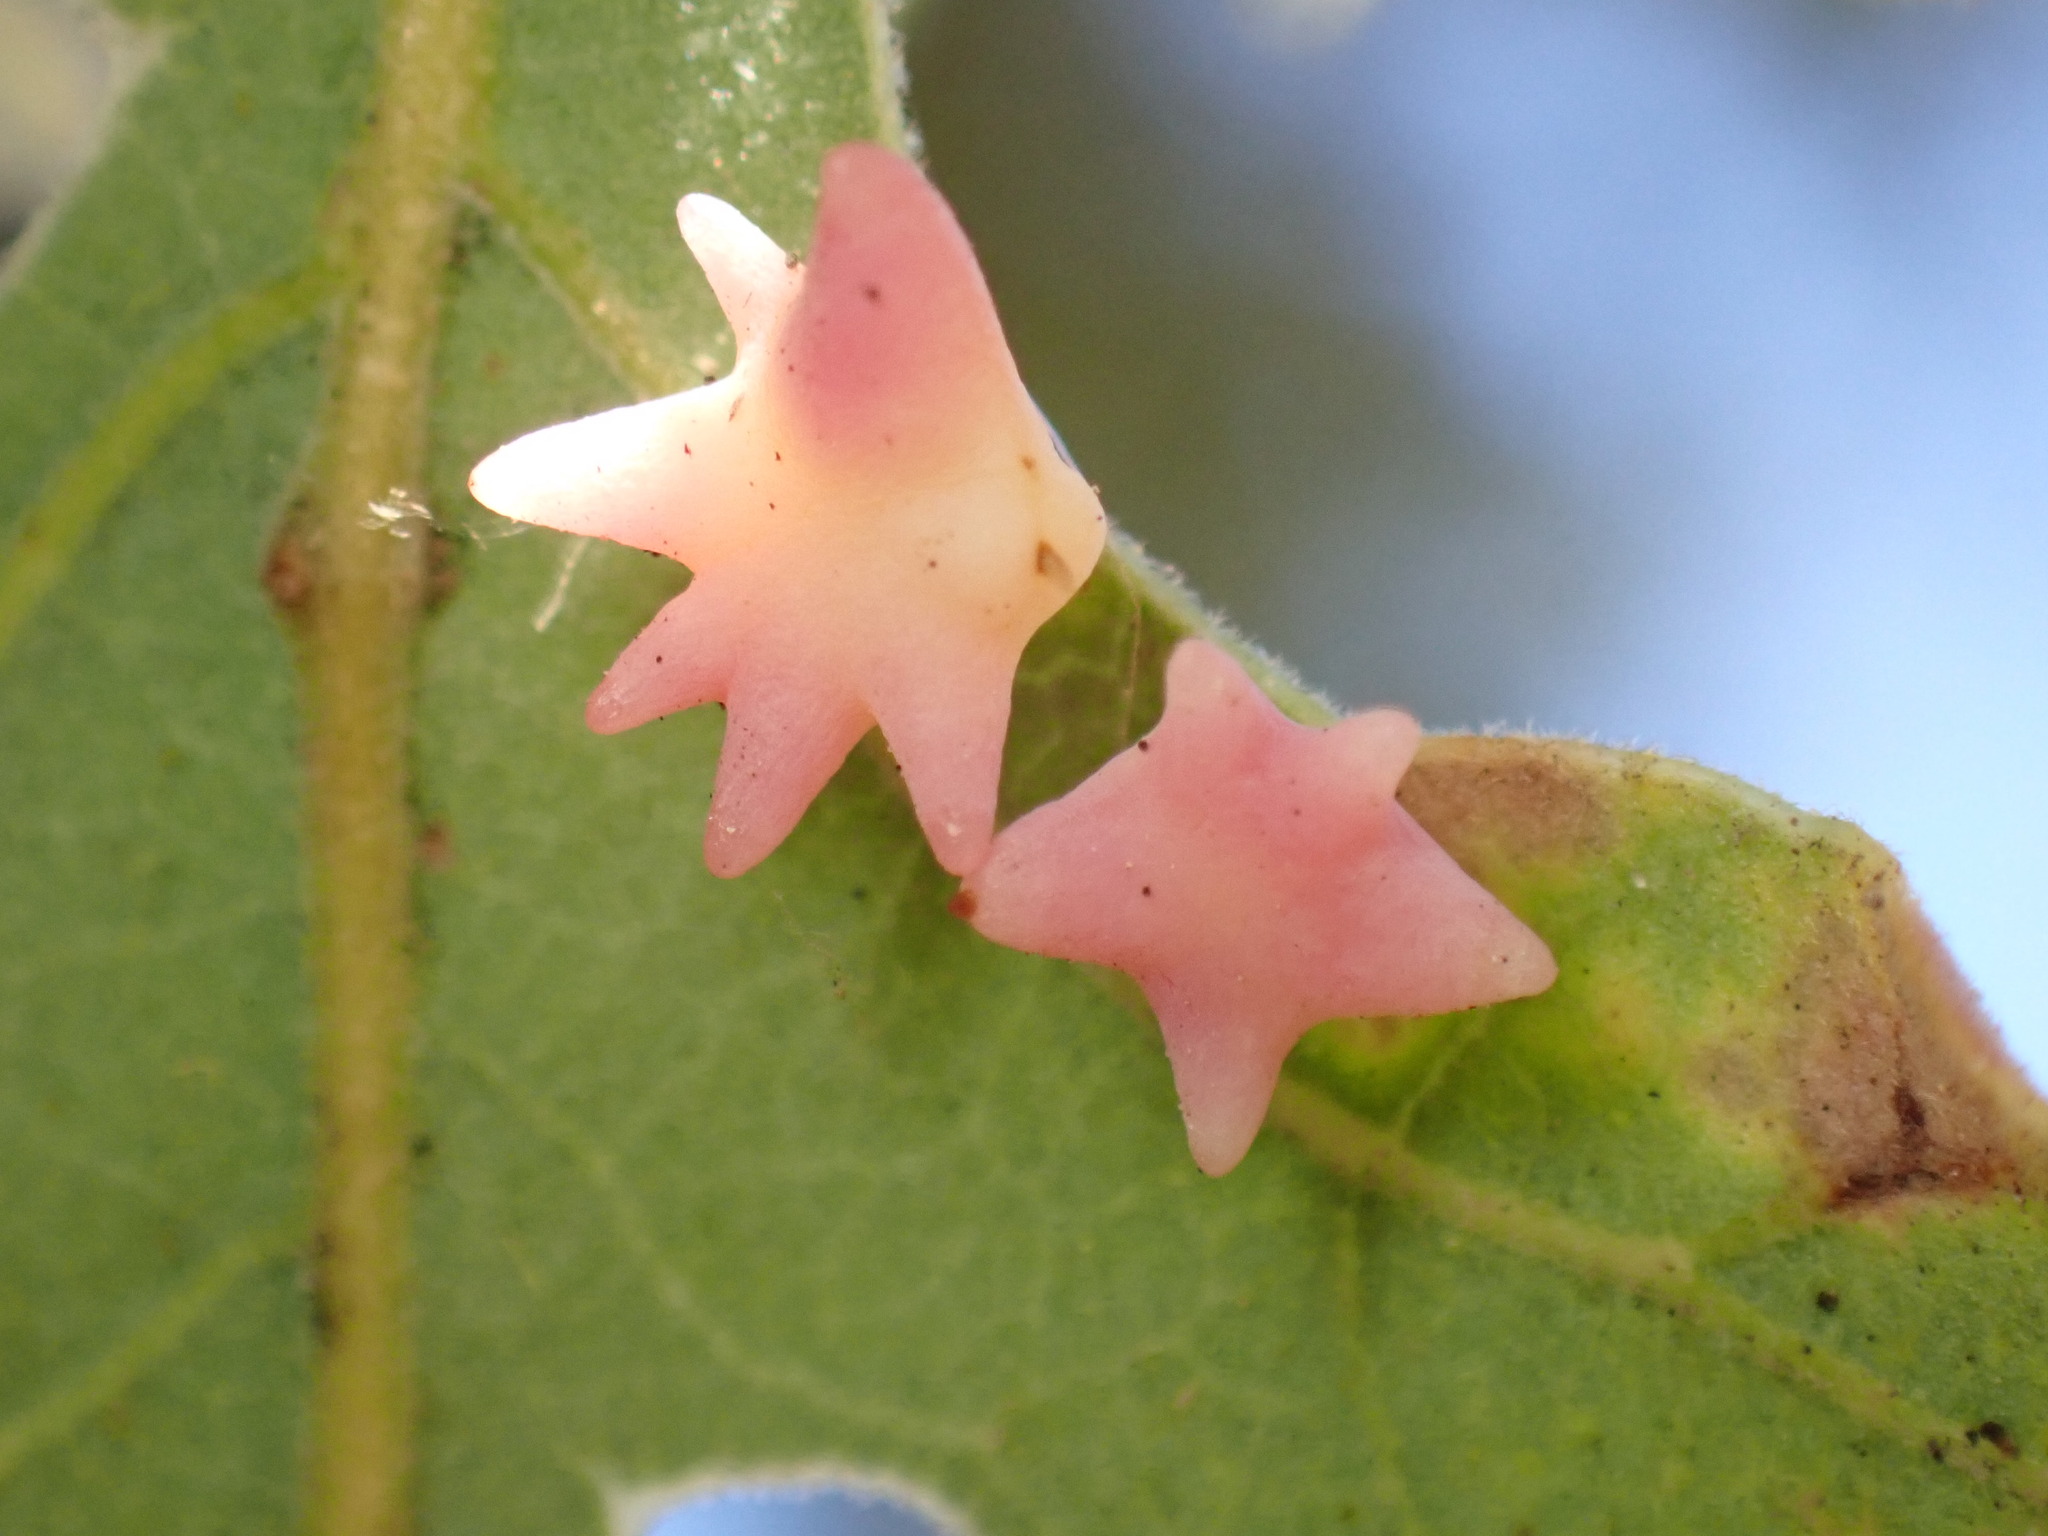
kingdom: Animalia
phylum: Arthropoda
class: Insecta
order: Hymenoptera
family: Cynipidae
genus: Cynips
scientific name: Cynips douglasi
